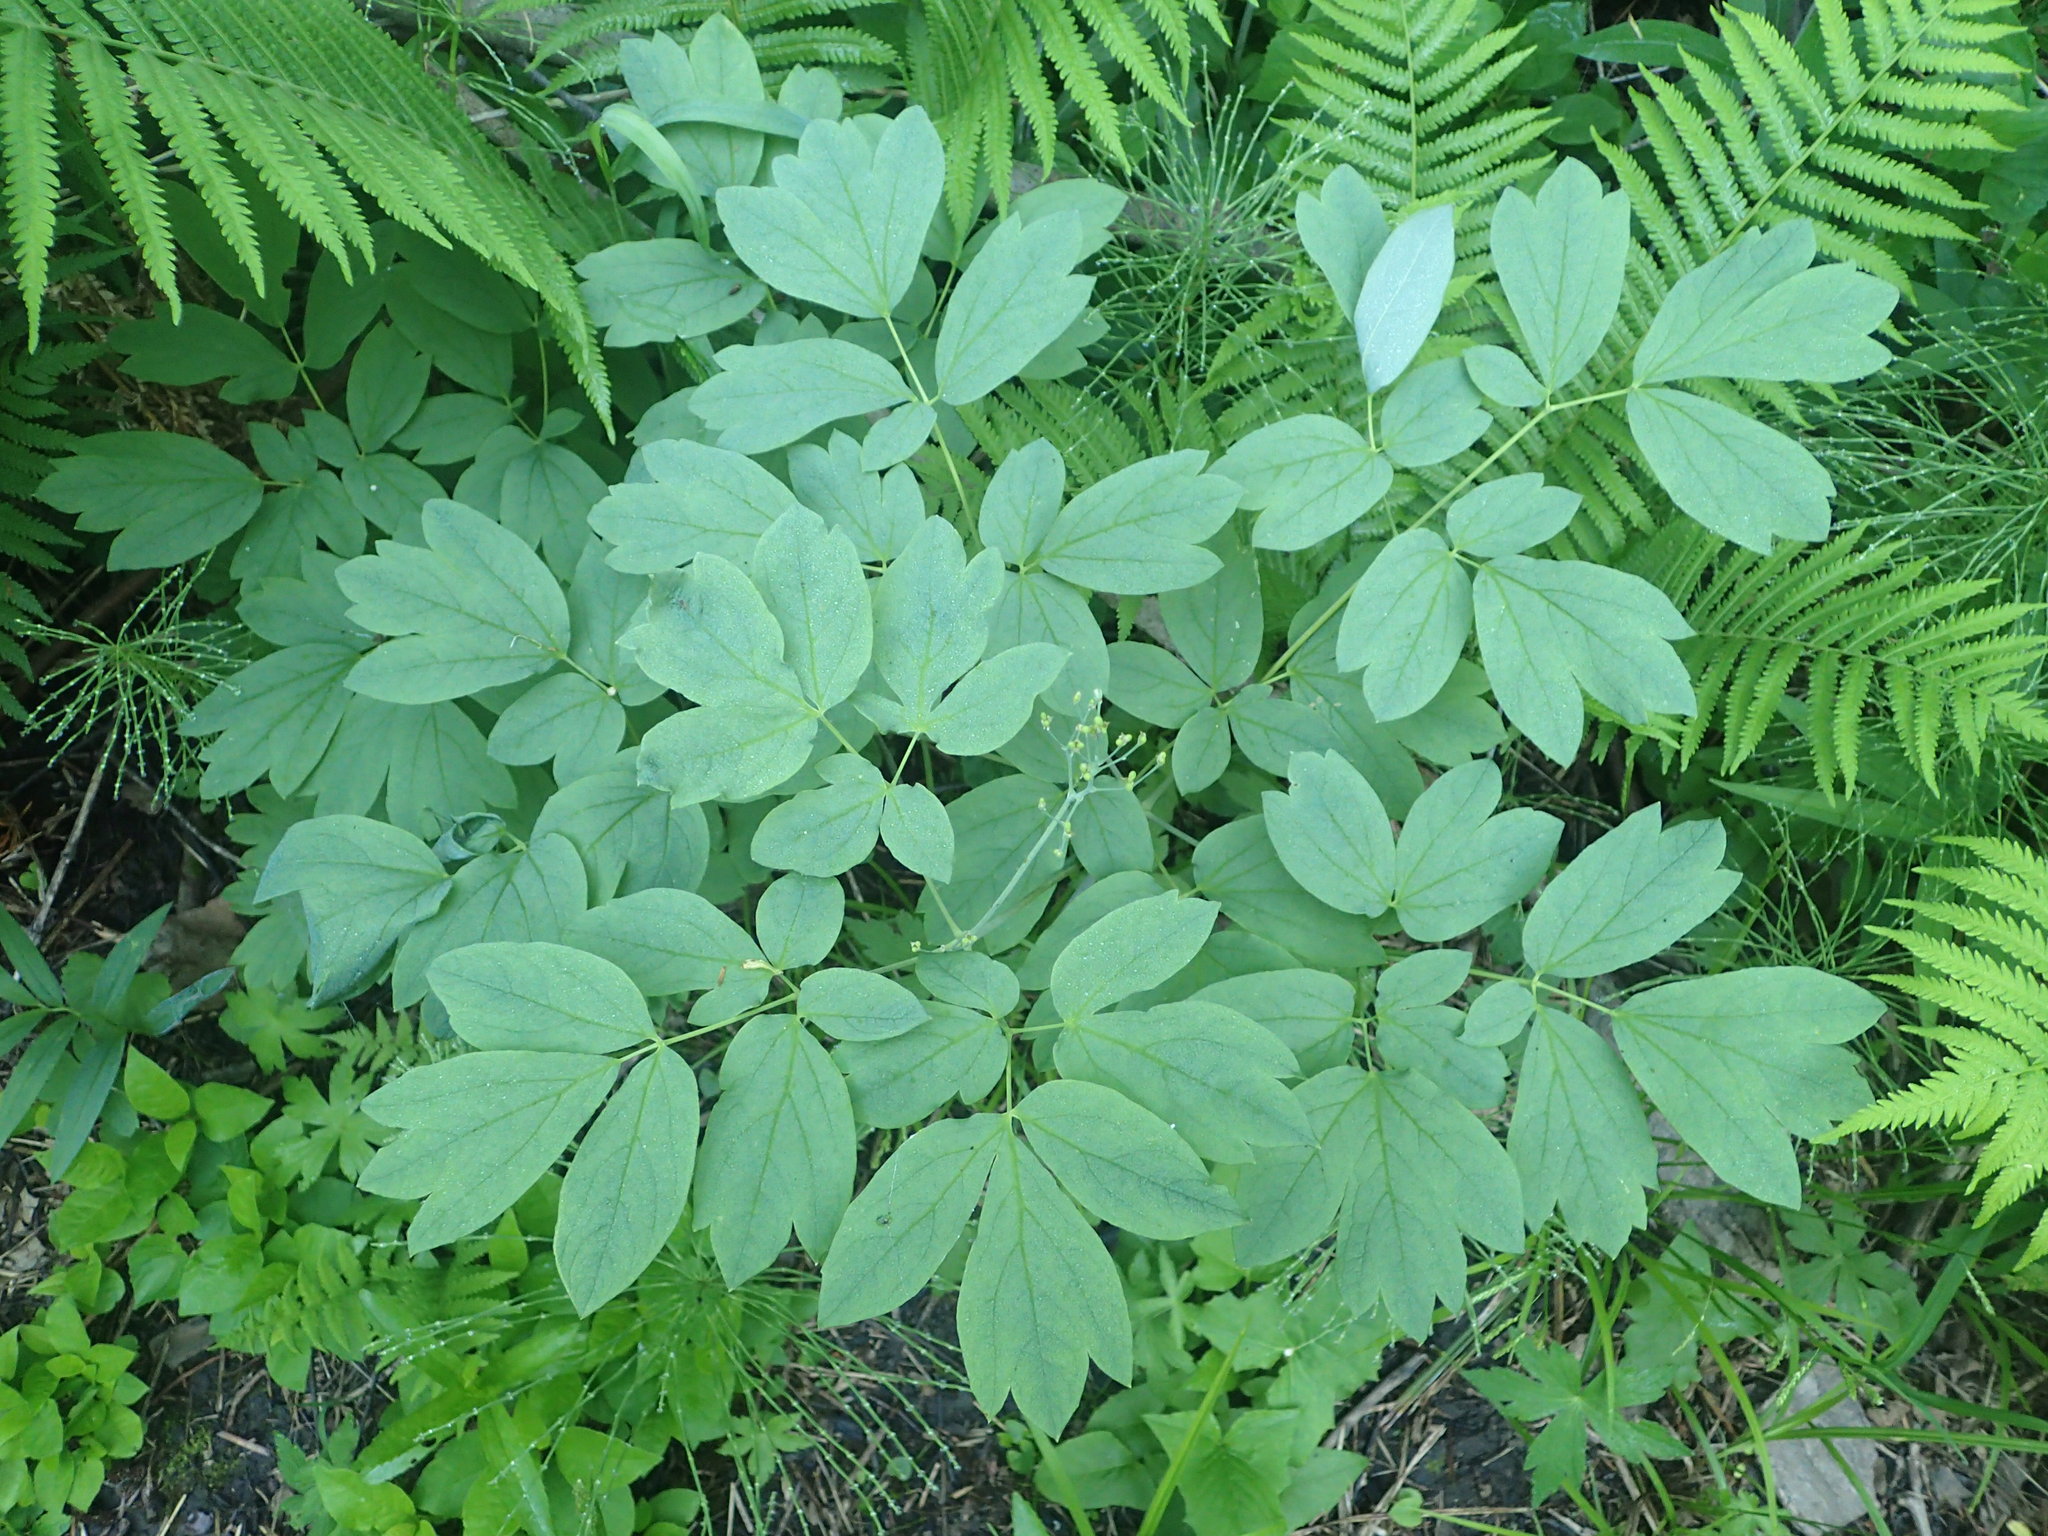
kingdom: Plantae
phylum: Tracheophyta
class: Magnoliopsida
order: Ranunculales
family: Berberidaceae
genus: Caulophyllum
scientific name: Caulophyllum thalictroides
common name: Blue cohosh
